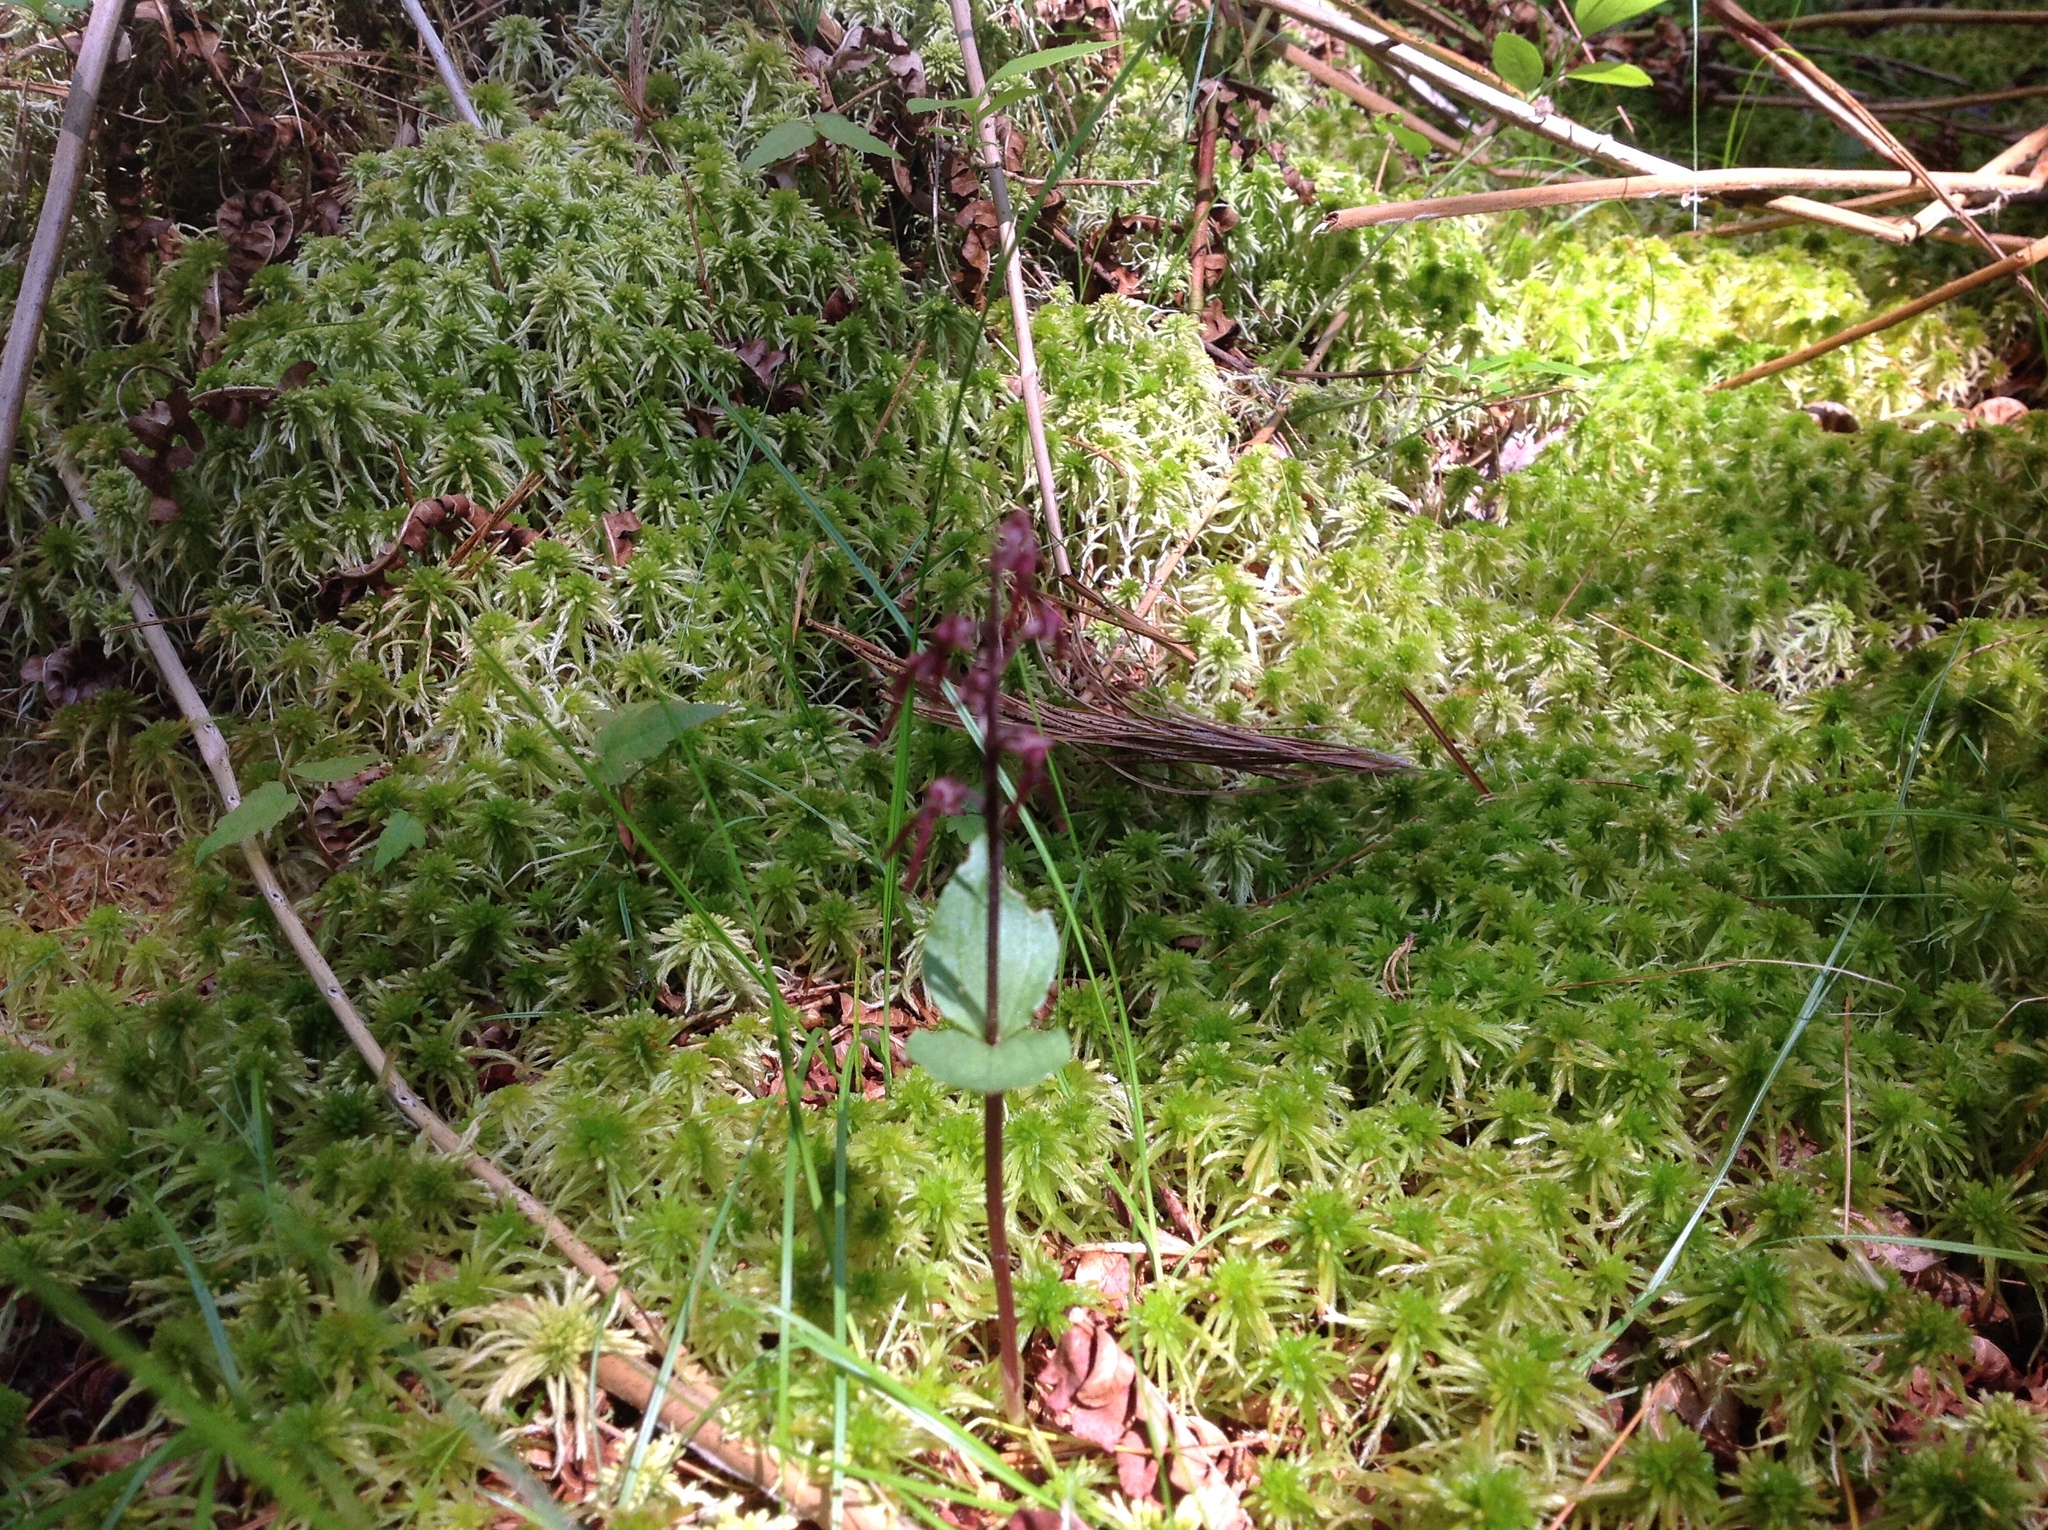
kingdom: Plantae
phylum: Tracheophyta
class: Liliopsida
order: Asparagales
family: Orchidaceae
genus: Neottia
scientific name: Neottia bifolia
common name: Southern twayblade
